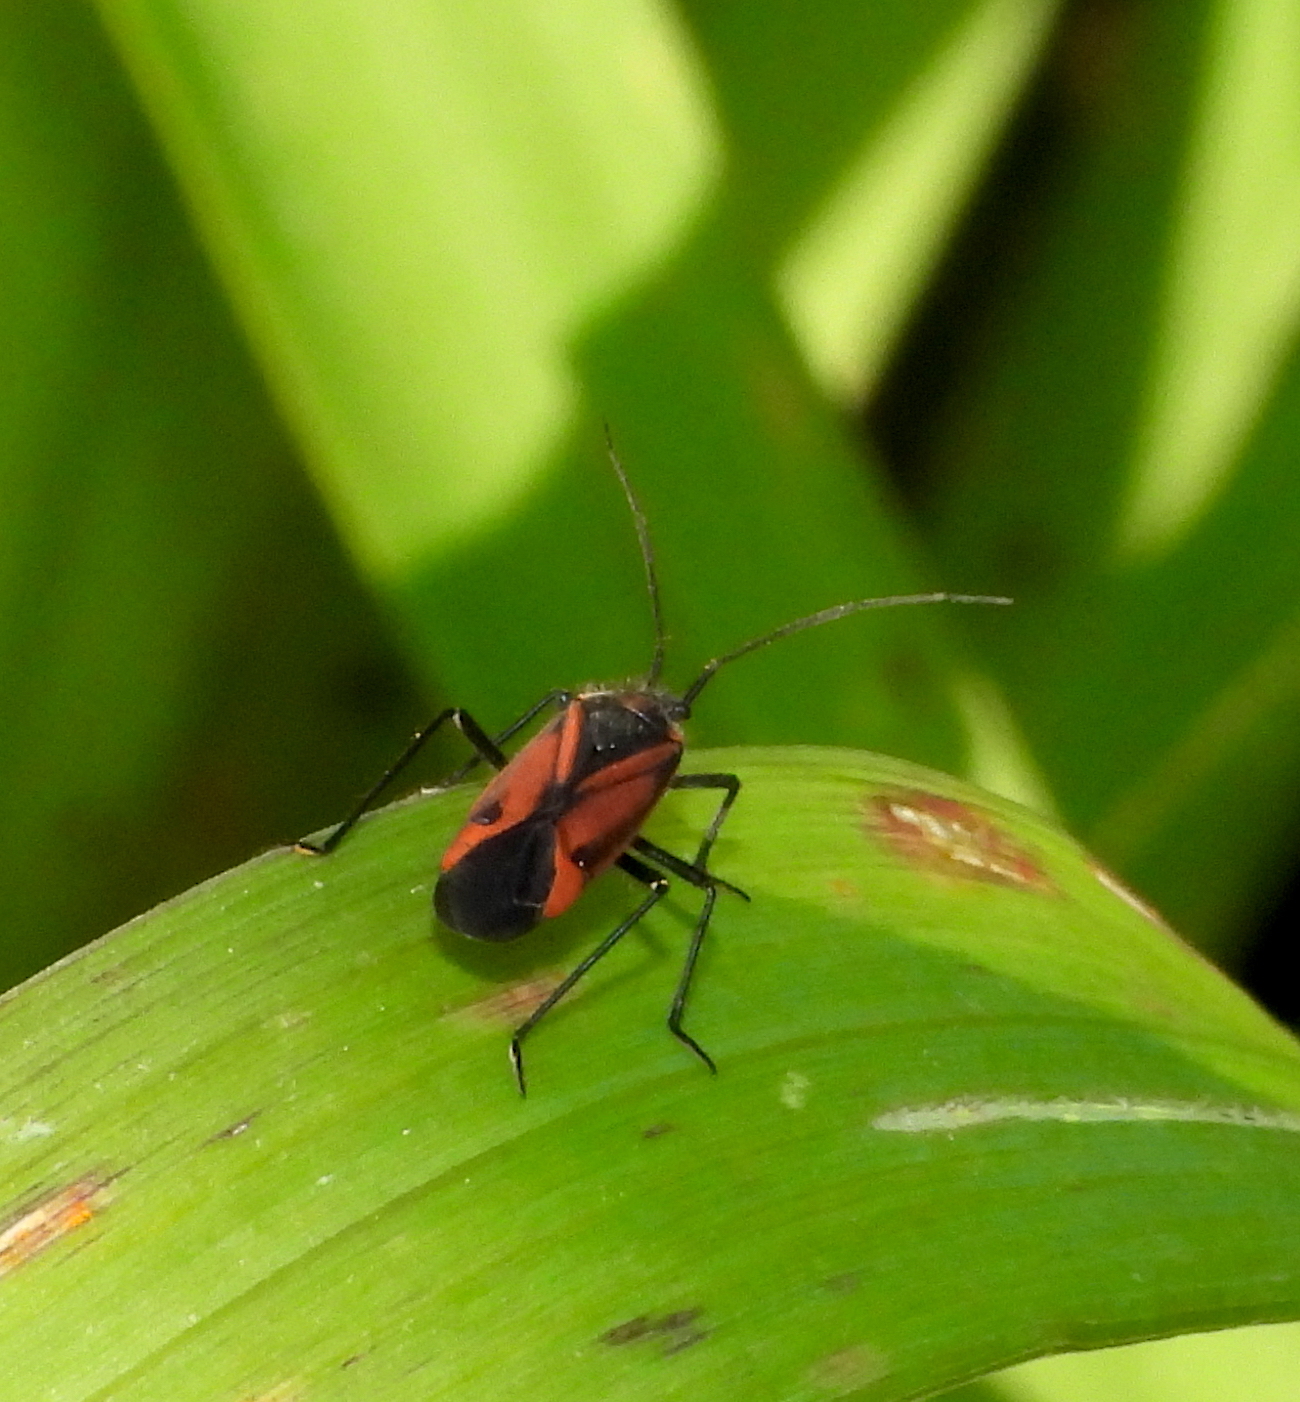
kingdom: Animalia
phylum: Arthropoda
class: Insecta
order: Hemiptera
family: Miridae
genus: Horistus
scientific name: Horistus turcomanus
